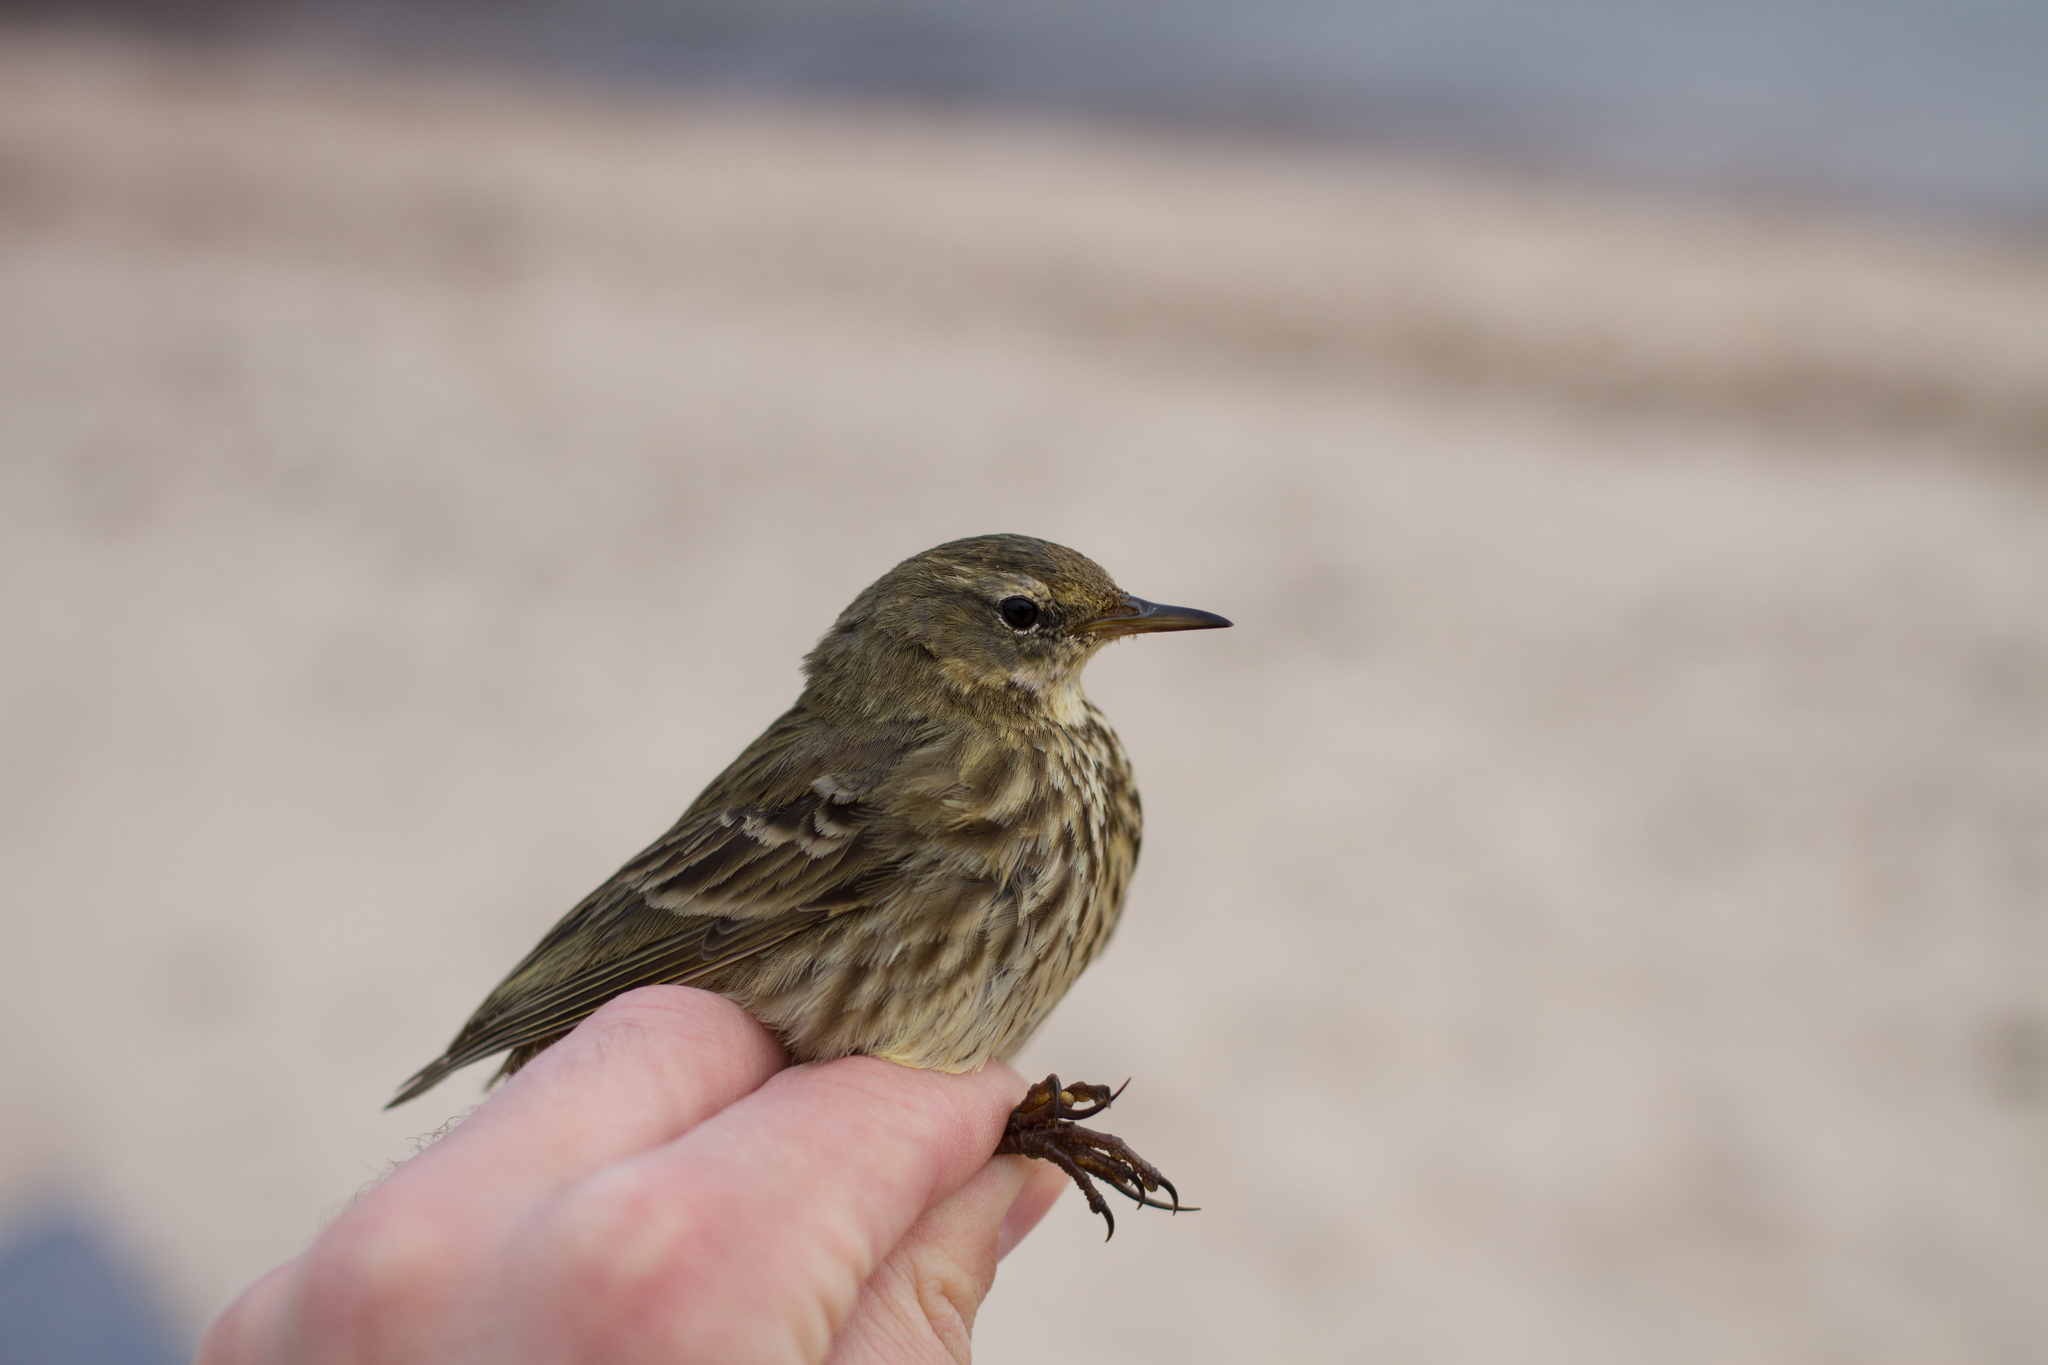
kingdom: Animalia
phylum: Chordata
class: Aves
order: Passeriformes
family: Motacillidae
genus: Anthus
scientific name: Anthus petrosus
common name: Eurasian rock pipit
